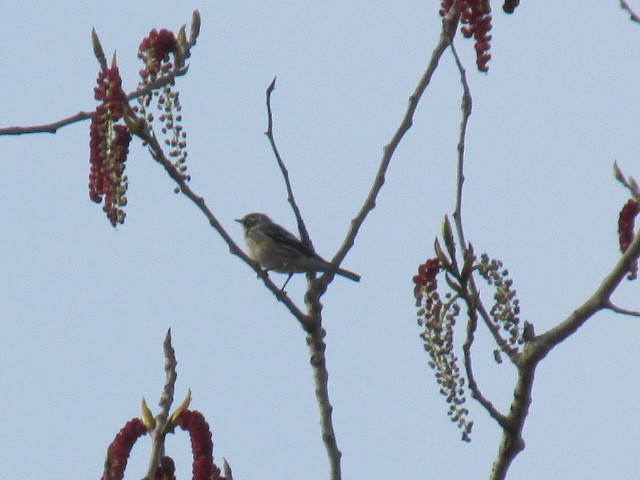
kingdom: Animalia
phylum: Chordata
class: Aves
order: Passeriformes
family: Parulidae
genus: Setophaga
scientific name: Setophaga coronata
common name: Myrtle warbler
